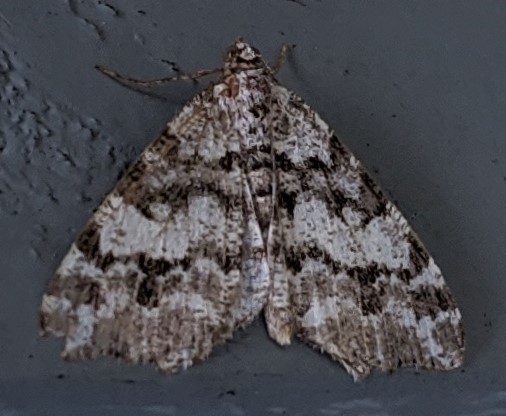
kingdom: Animalia
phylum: Arthropoda
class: Insecta
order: Lepidoptera
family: Geometridae
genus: Macaria
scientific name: Macaria pinistrobata
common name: White pine angle
